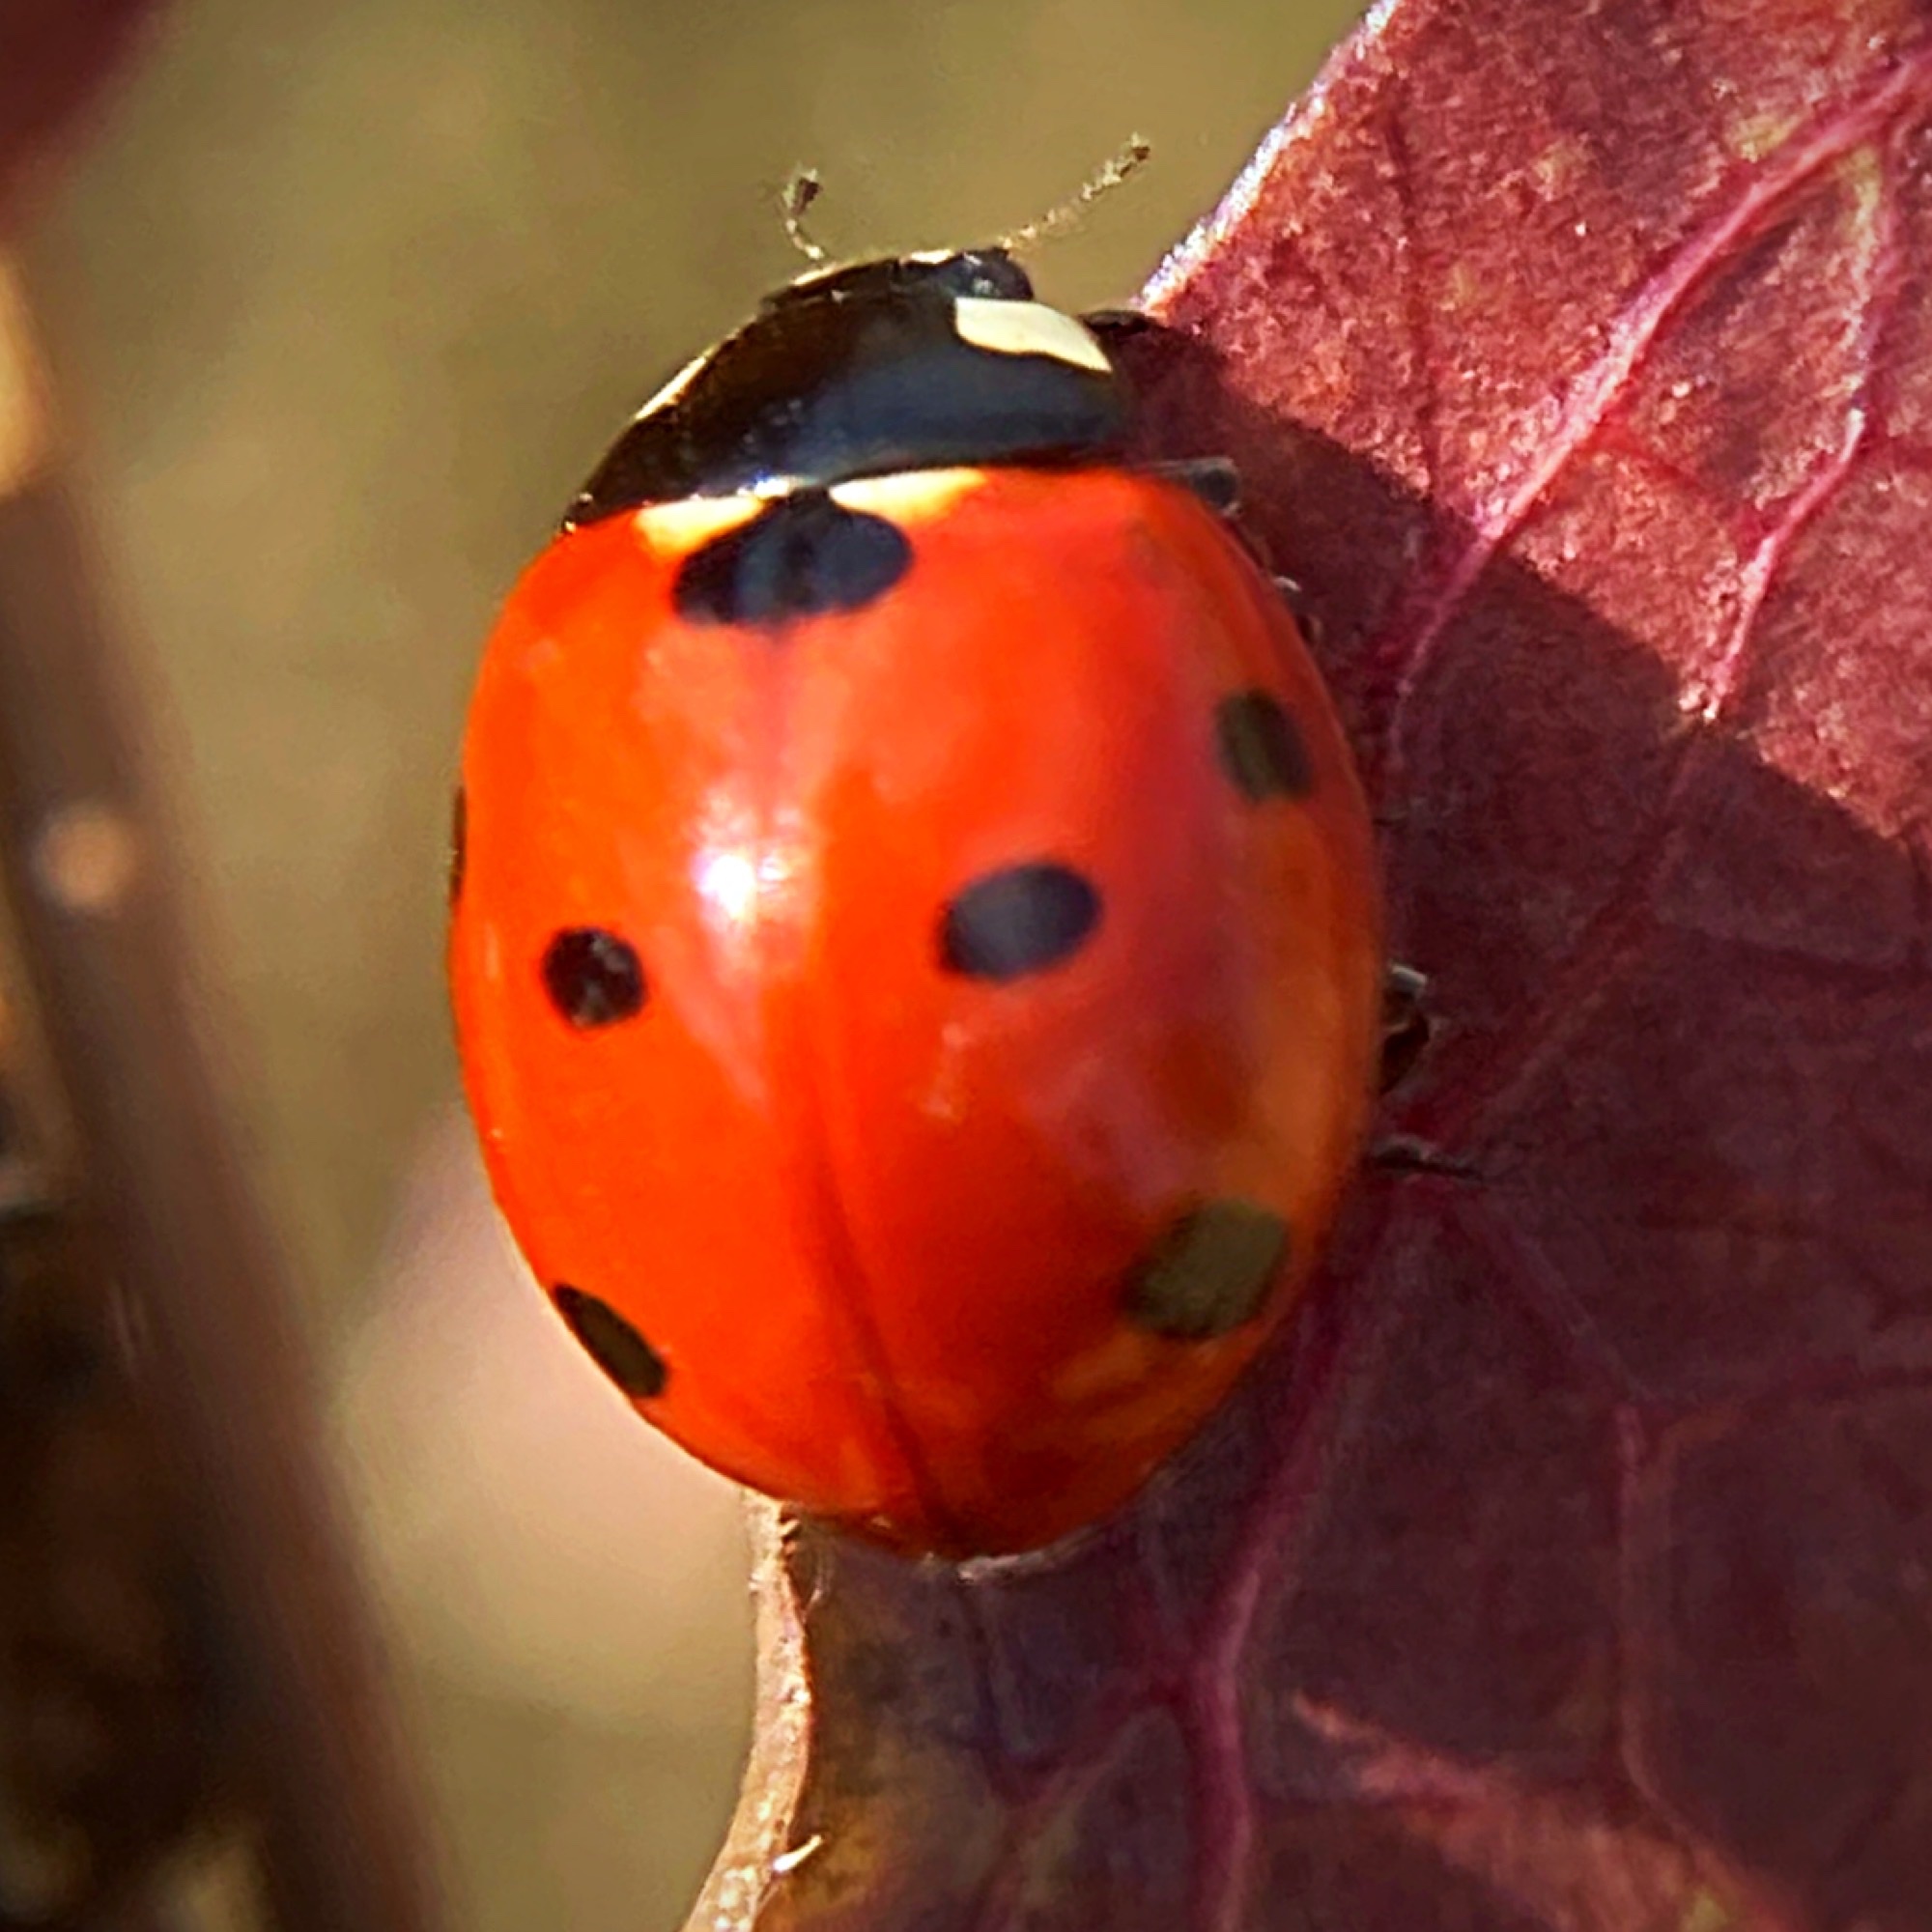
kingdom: Animalia
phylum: Arthropoda
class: Insecta
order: Coleoptera
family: Coccinellidae
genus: Coccinella
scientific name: Coccinella septempunctata
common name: Sevenspotted lady beetle
